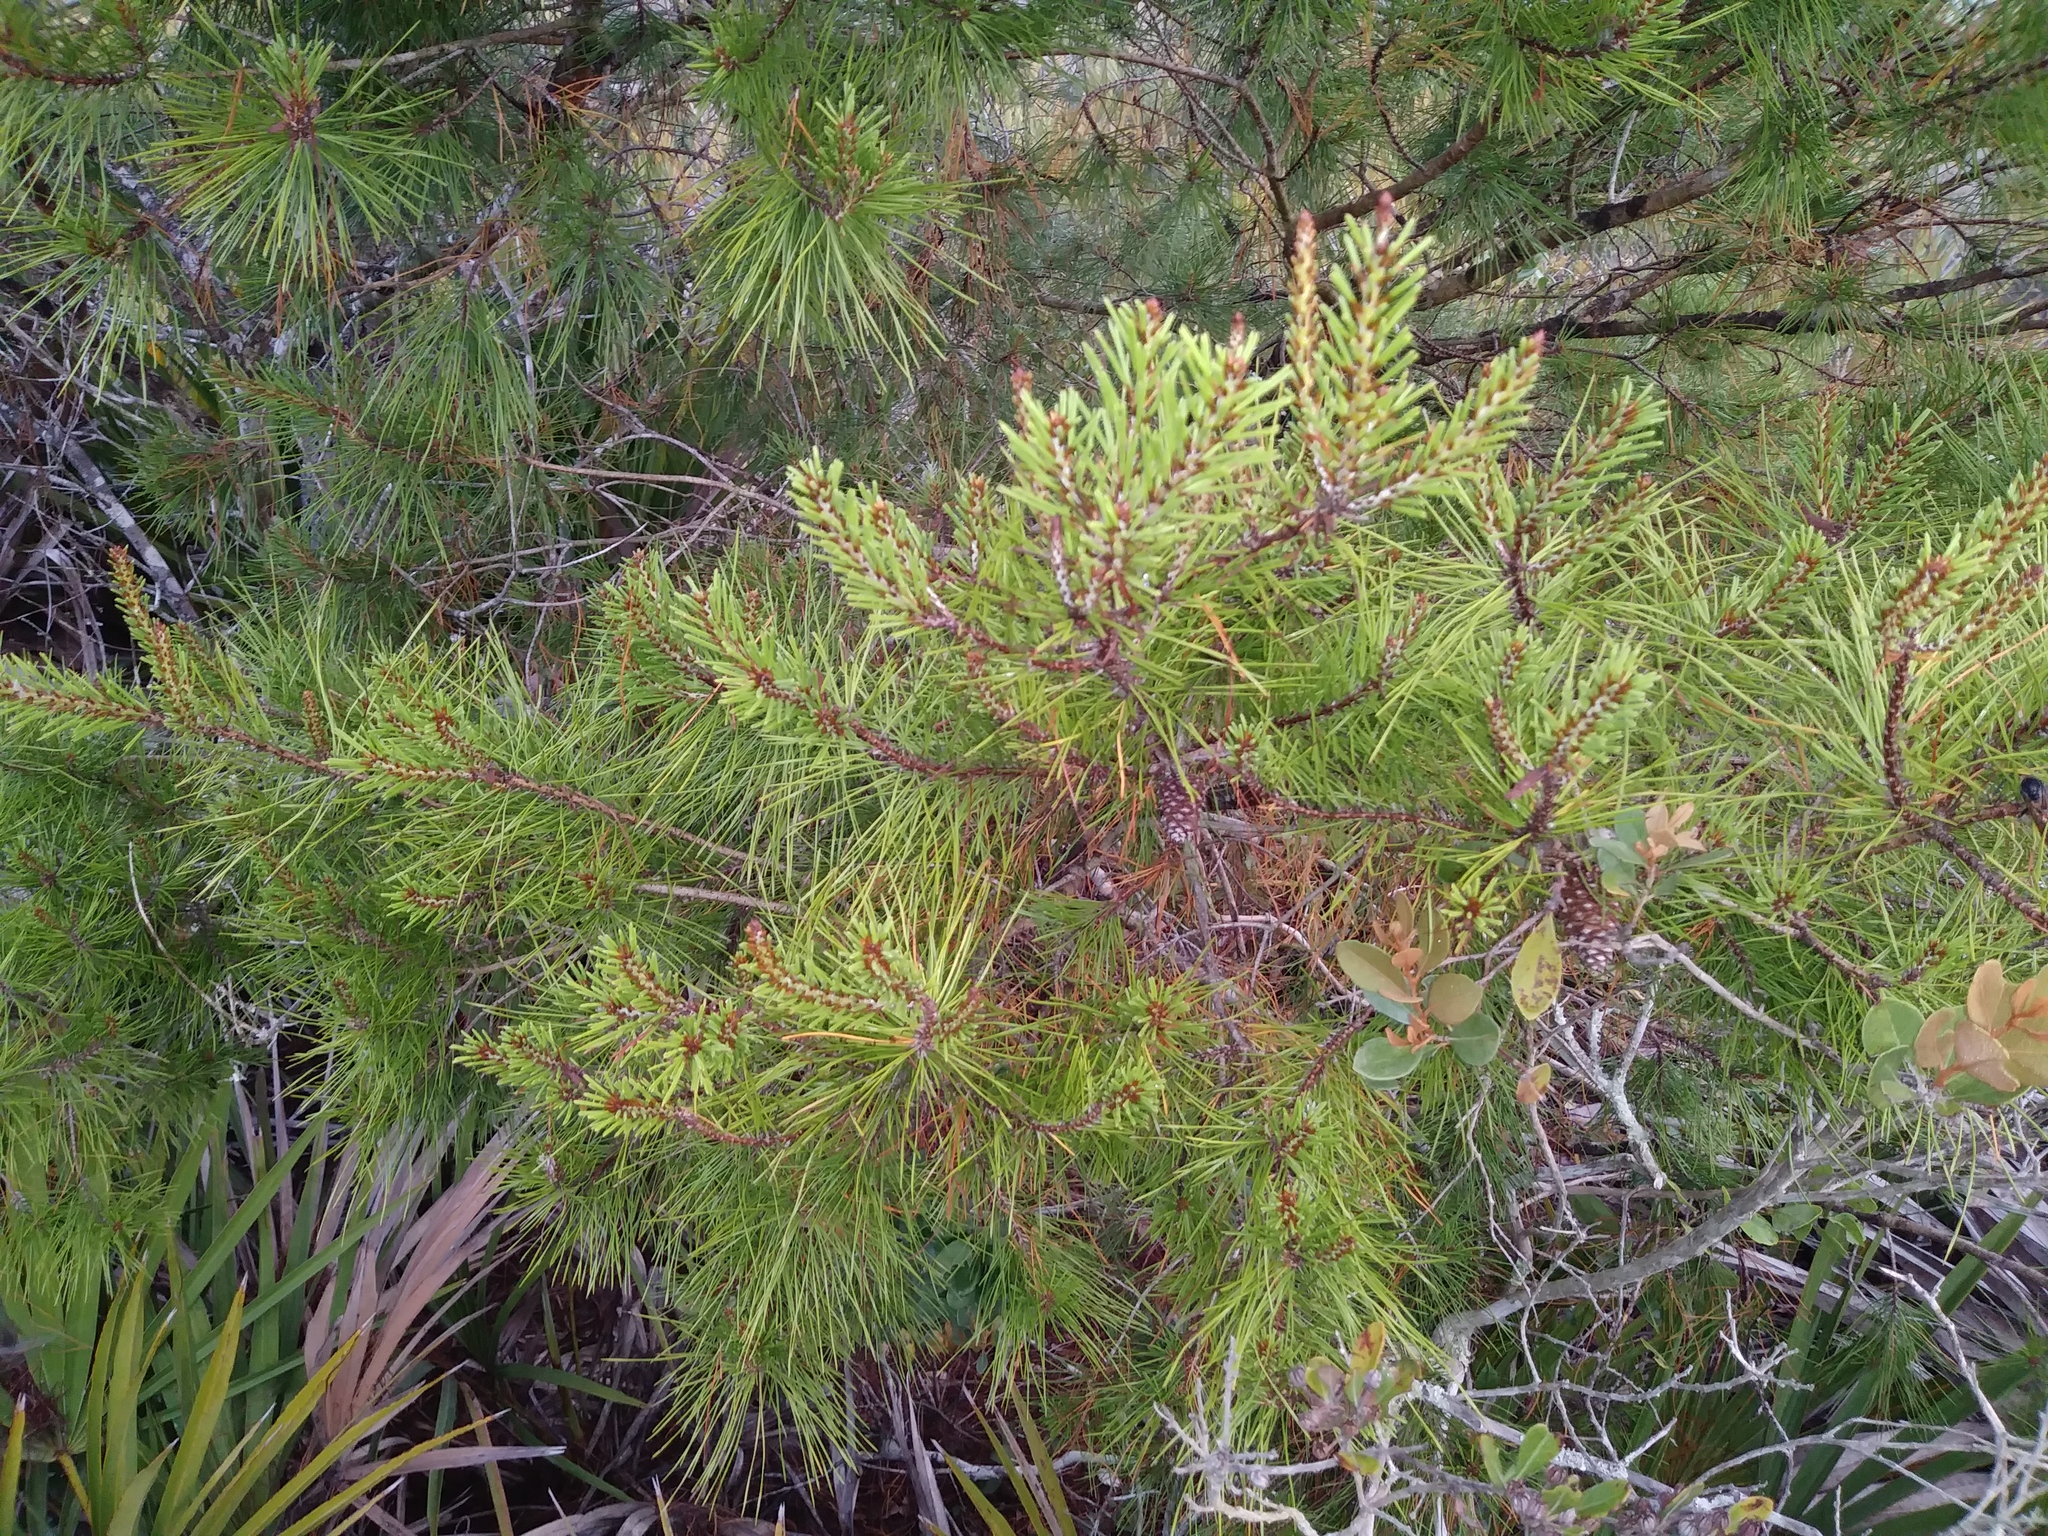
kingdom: Plantae
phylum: Tracheophyta
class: Pinopsida
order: Pinales
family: Pinaceae
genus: Pinus
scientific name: Pinus clausa
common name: Sand pine
